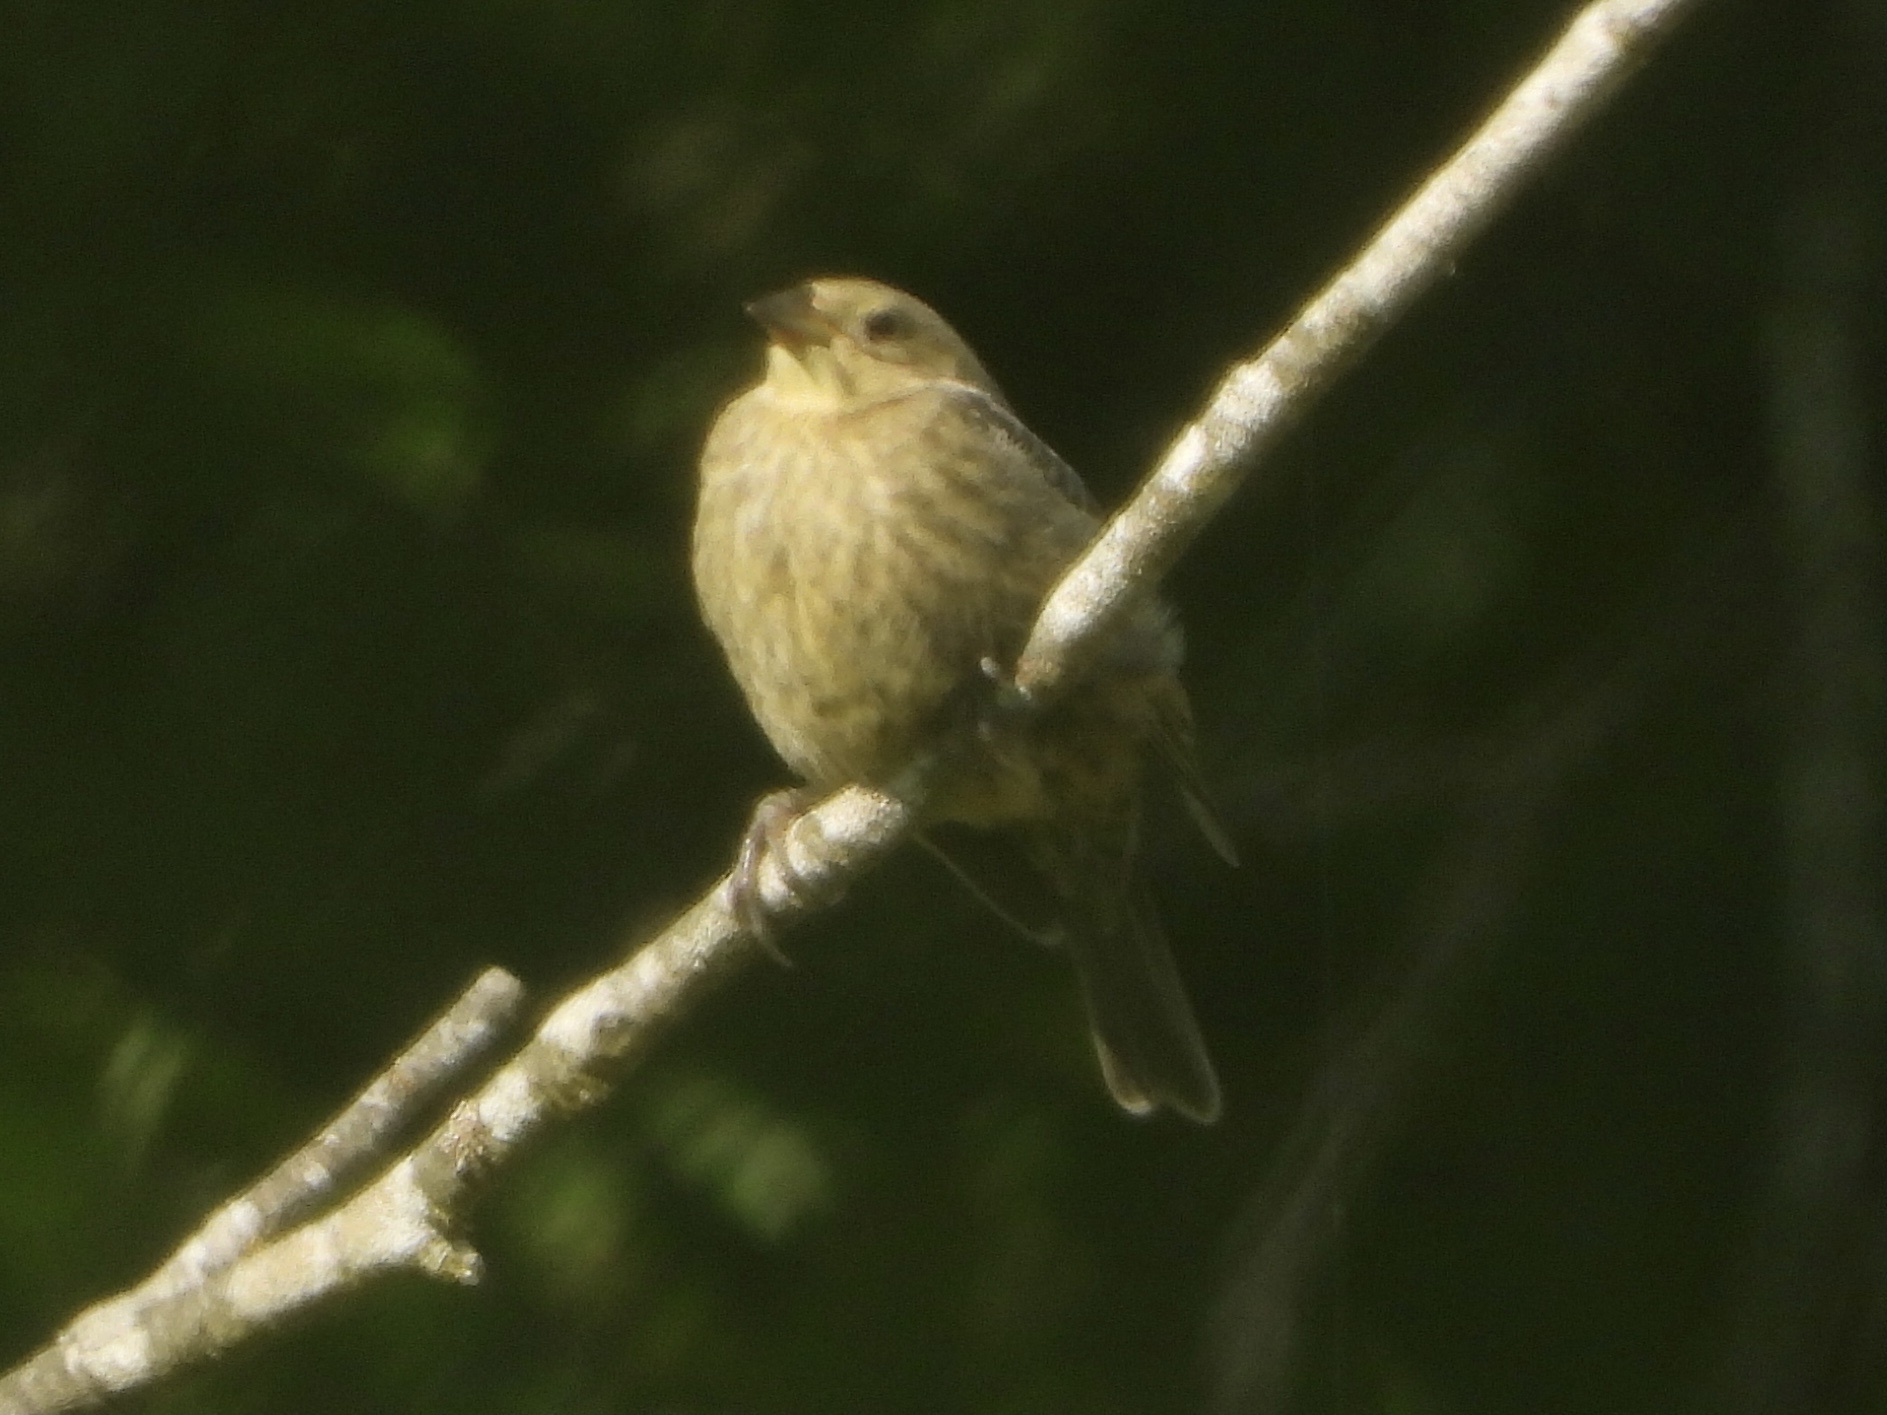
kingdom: Animalia
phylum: Chordata
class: Aves
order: Passeriformes
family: Icteridae
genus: Molothrus
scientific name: Molothrus ater
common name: Brown-headed cowbird
